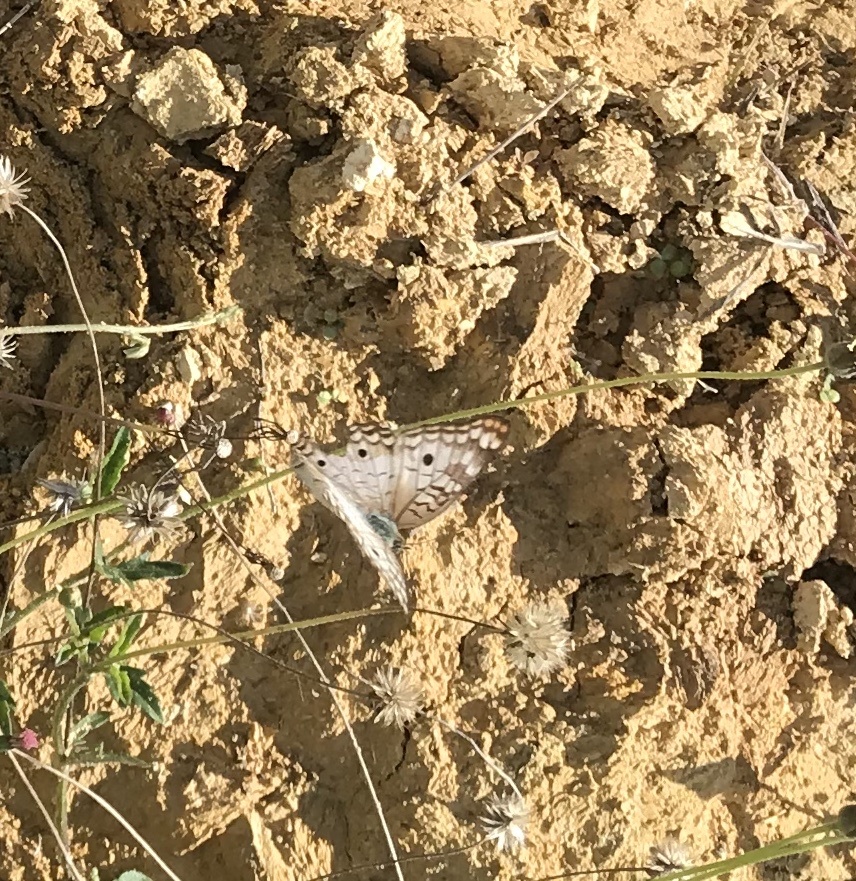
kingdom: Animalia
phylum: Arthropoda
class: Insecta
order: Lepidoptera
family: Nymphalidae
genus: Anartia
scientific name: Anartia jatrophae
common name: White peacock
